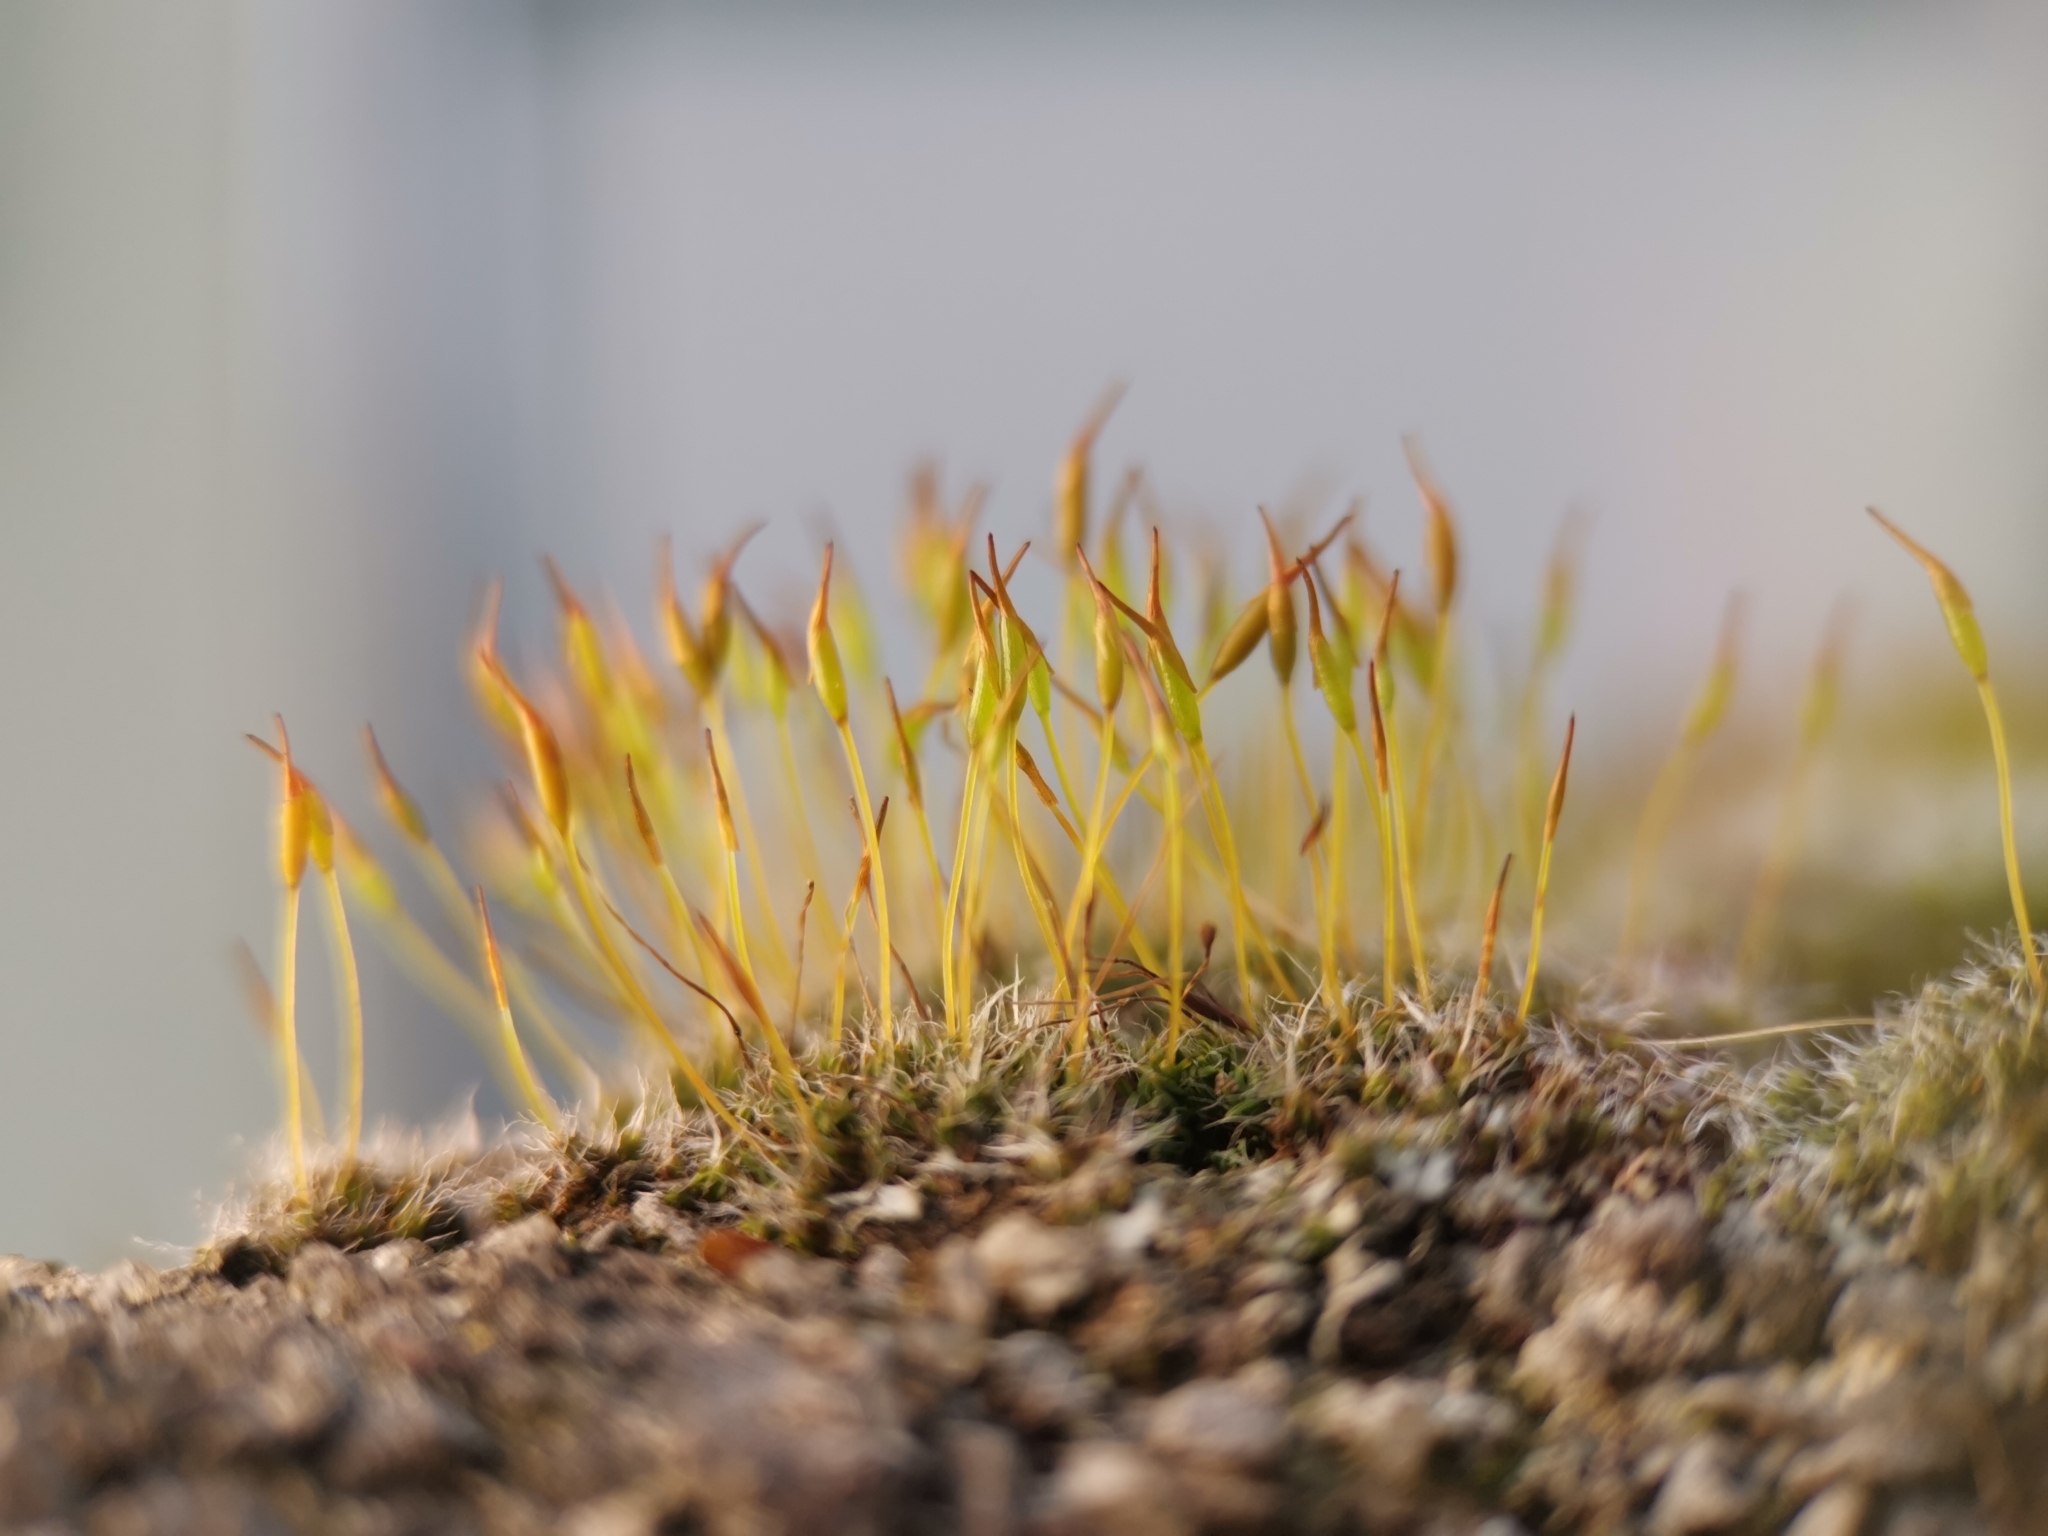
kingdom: Plantae
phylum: Bryophyta
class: Bryopsida
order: Pottiales
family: Pottiaceae
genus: Tortula
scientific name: Tortula muralis
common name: Wall screw-moss
